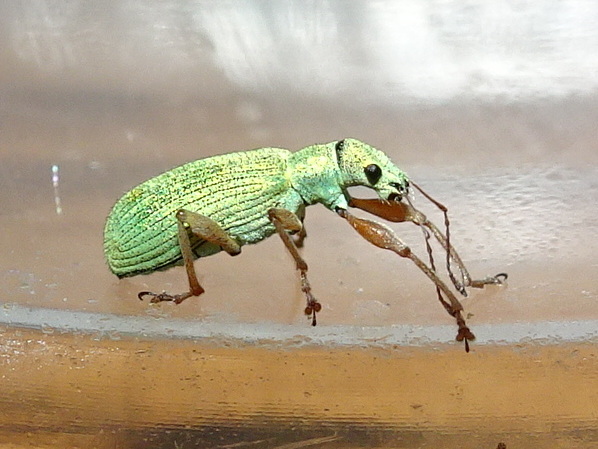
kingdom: Animalia
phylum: Arthropoda
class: Insecta
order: Coleoptera
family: Curculionidae
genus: Polydrusus
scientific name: Polydrusus impressifrons
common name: Weevil
